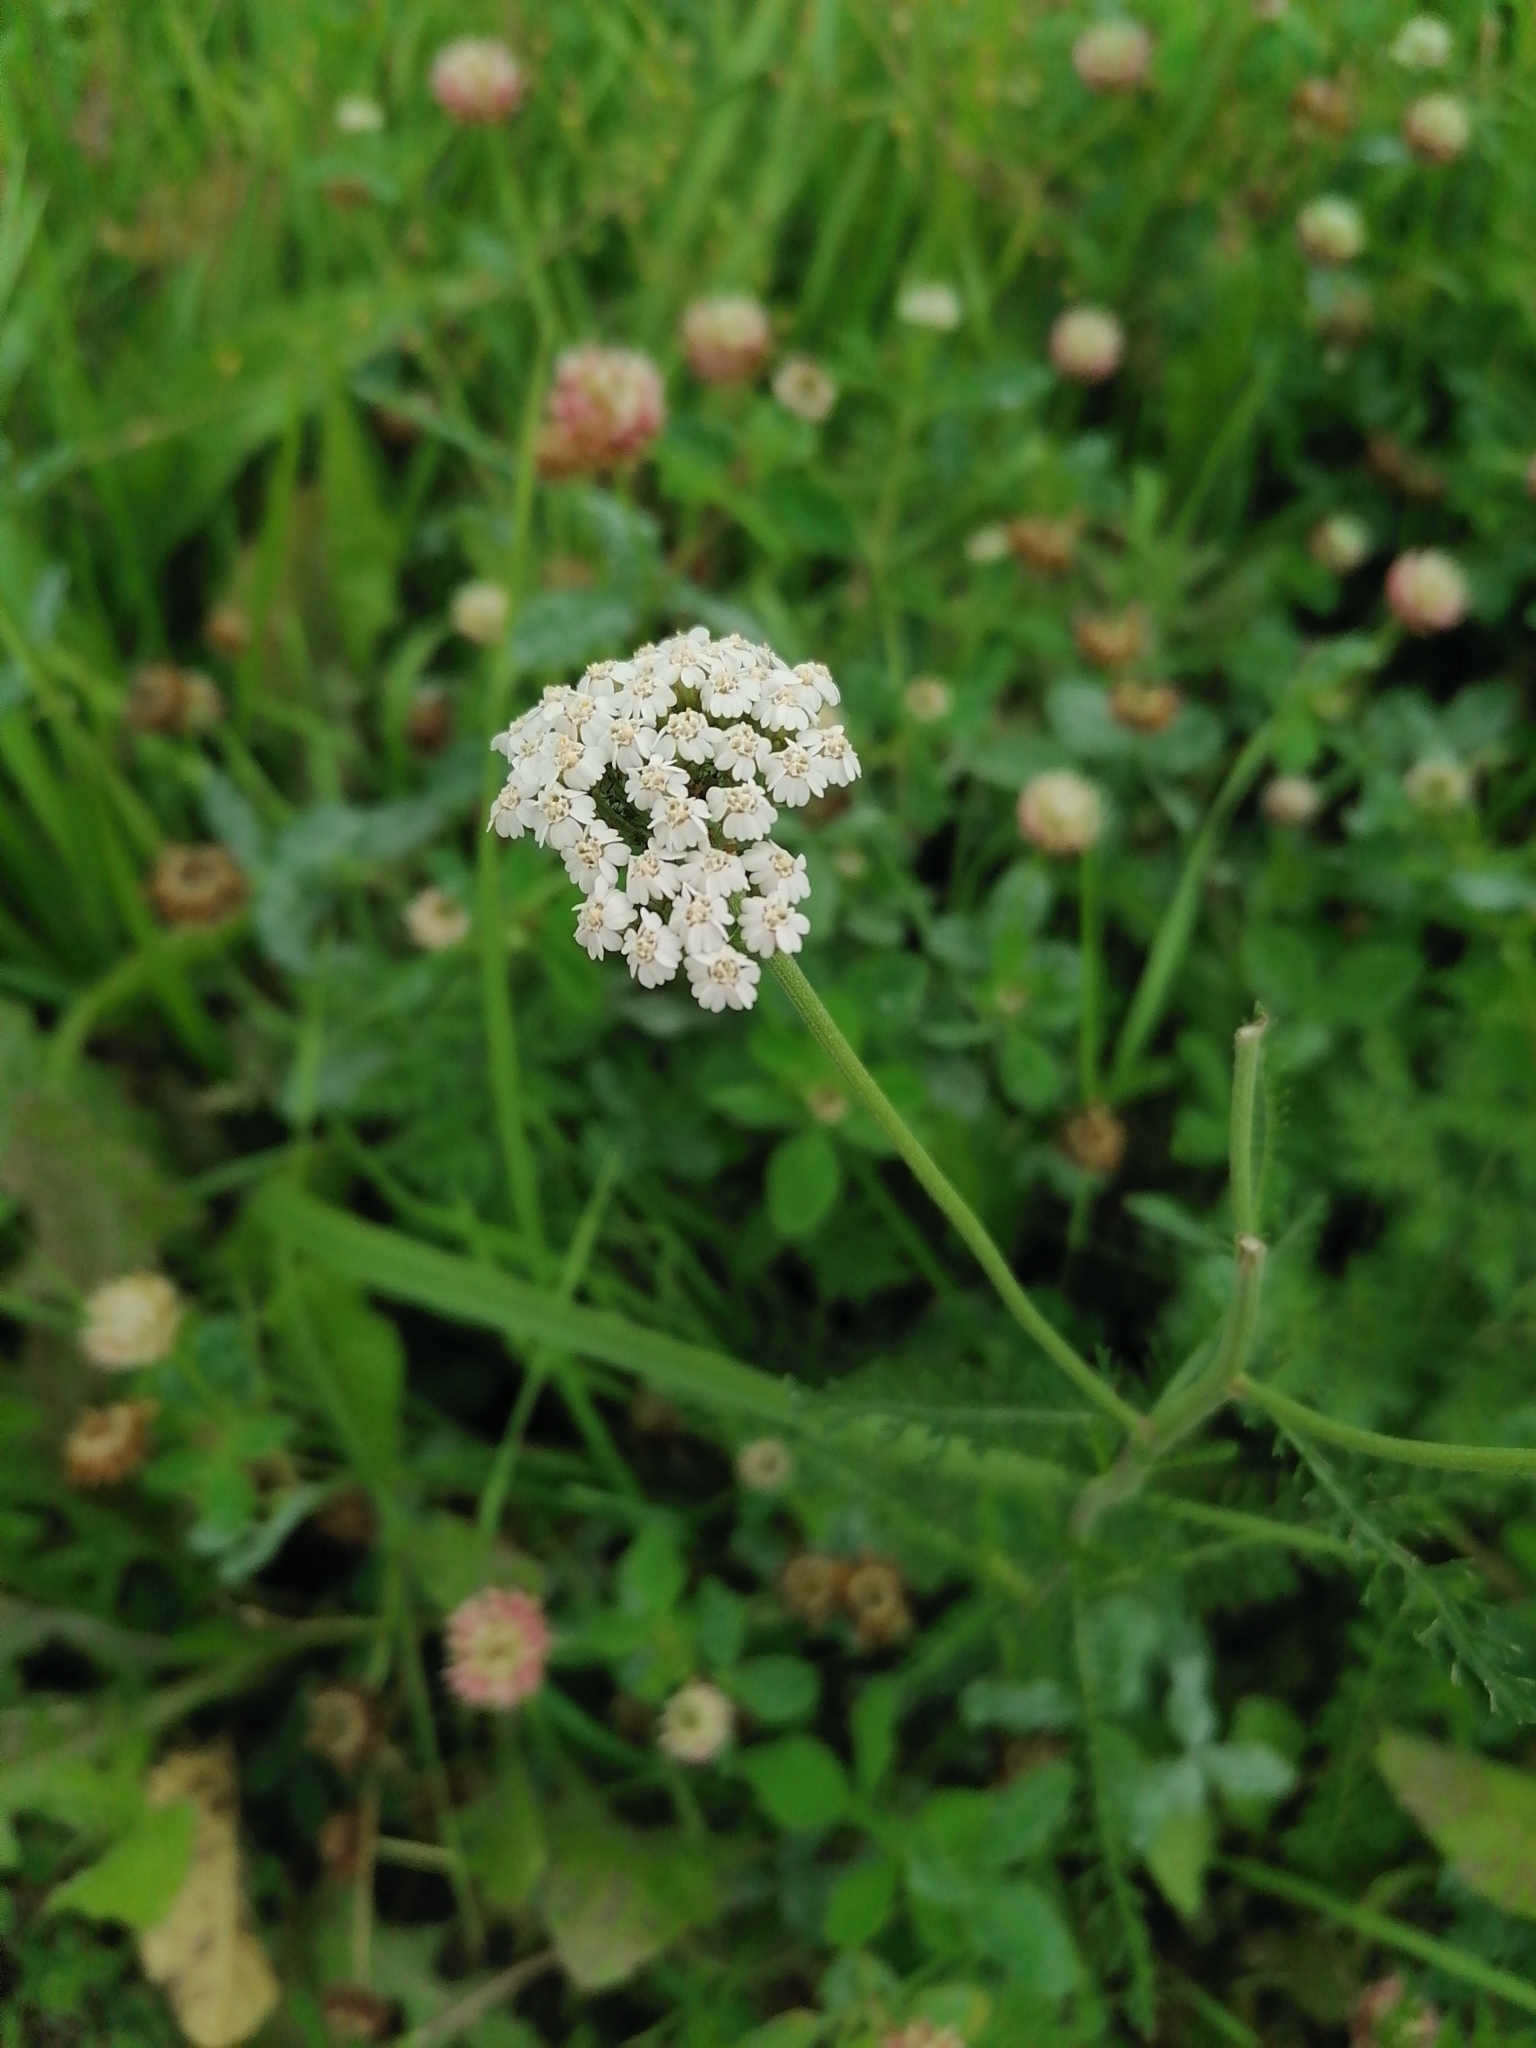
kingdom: Plantae
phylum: Tracheophyta
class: Magnoliopsida
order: Asterales
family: Asteraceae
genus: Achillea
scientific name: Achillea millefolium
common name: Yarrow
